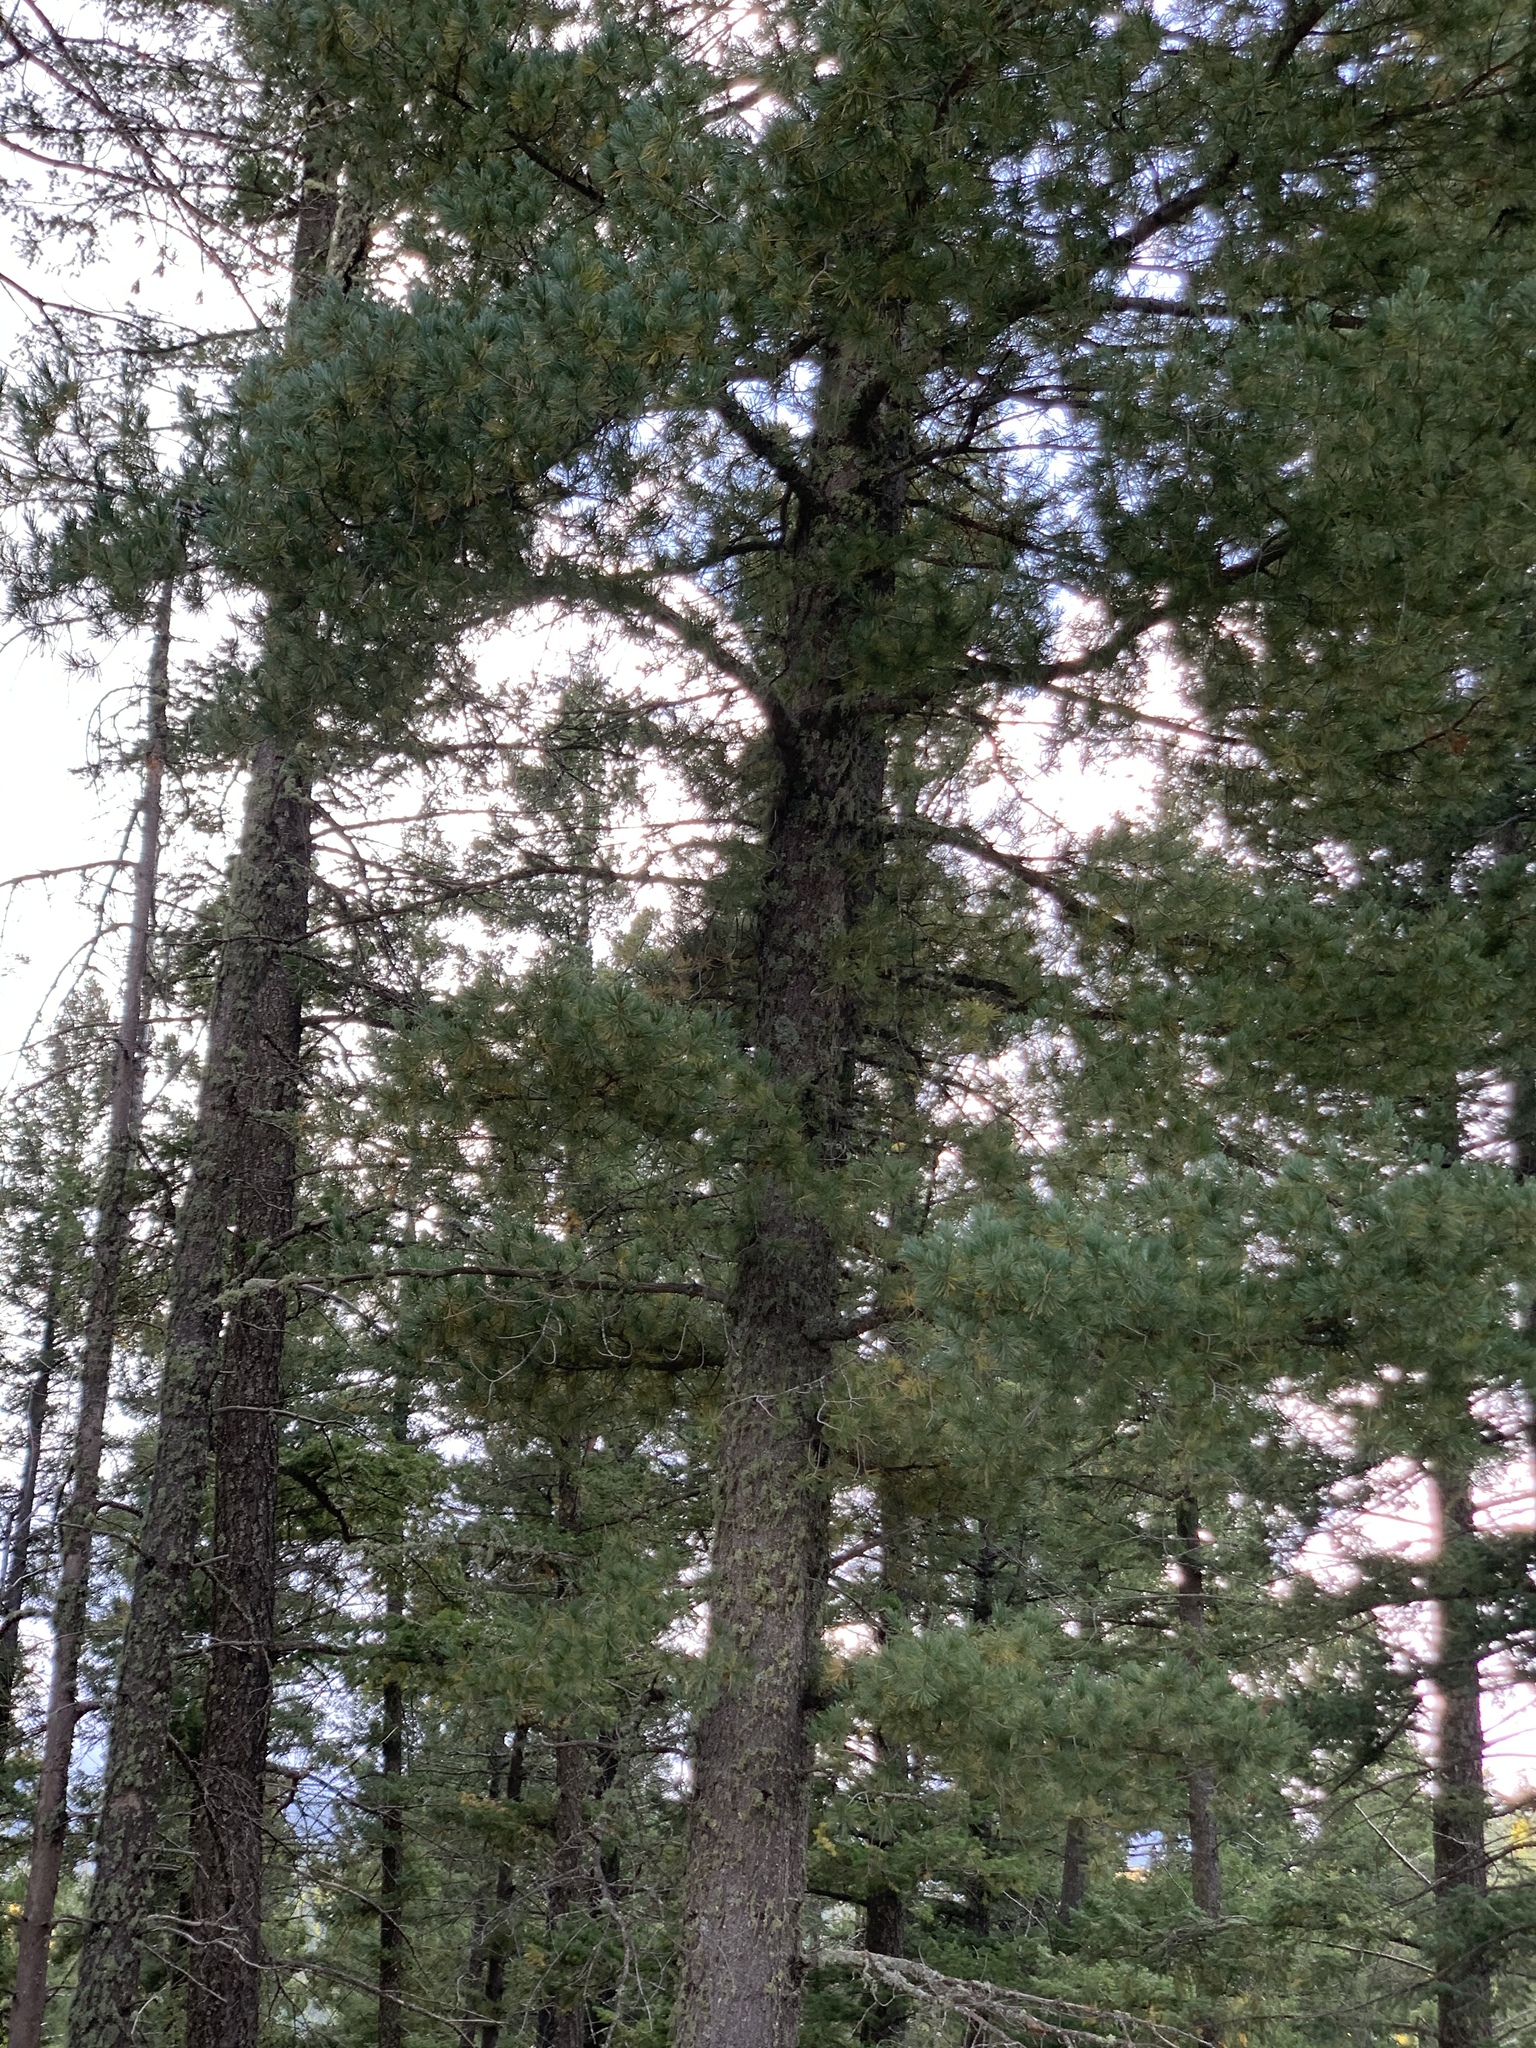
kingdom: Plantae
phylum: Tracheophyta
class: Pinopsida
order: Pinales
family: Pinaceae
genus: Pinus
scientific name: Pinus strobiformis
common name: Southwestern white pine
